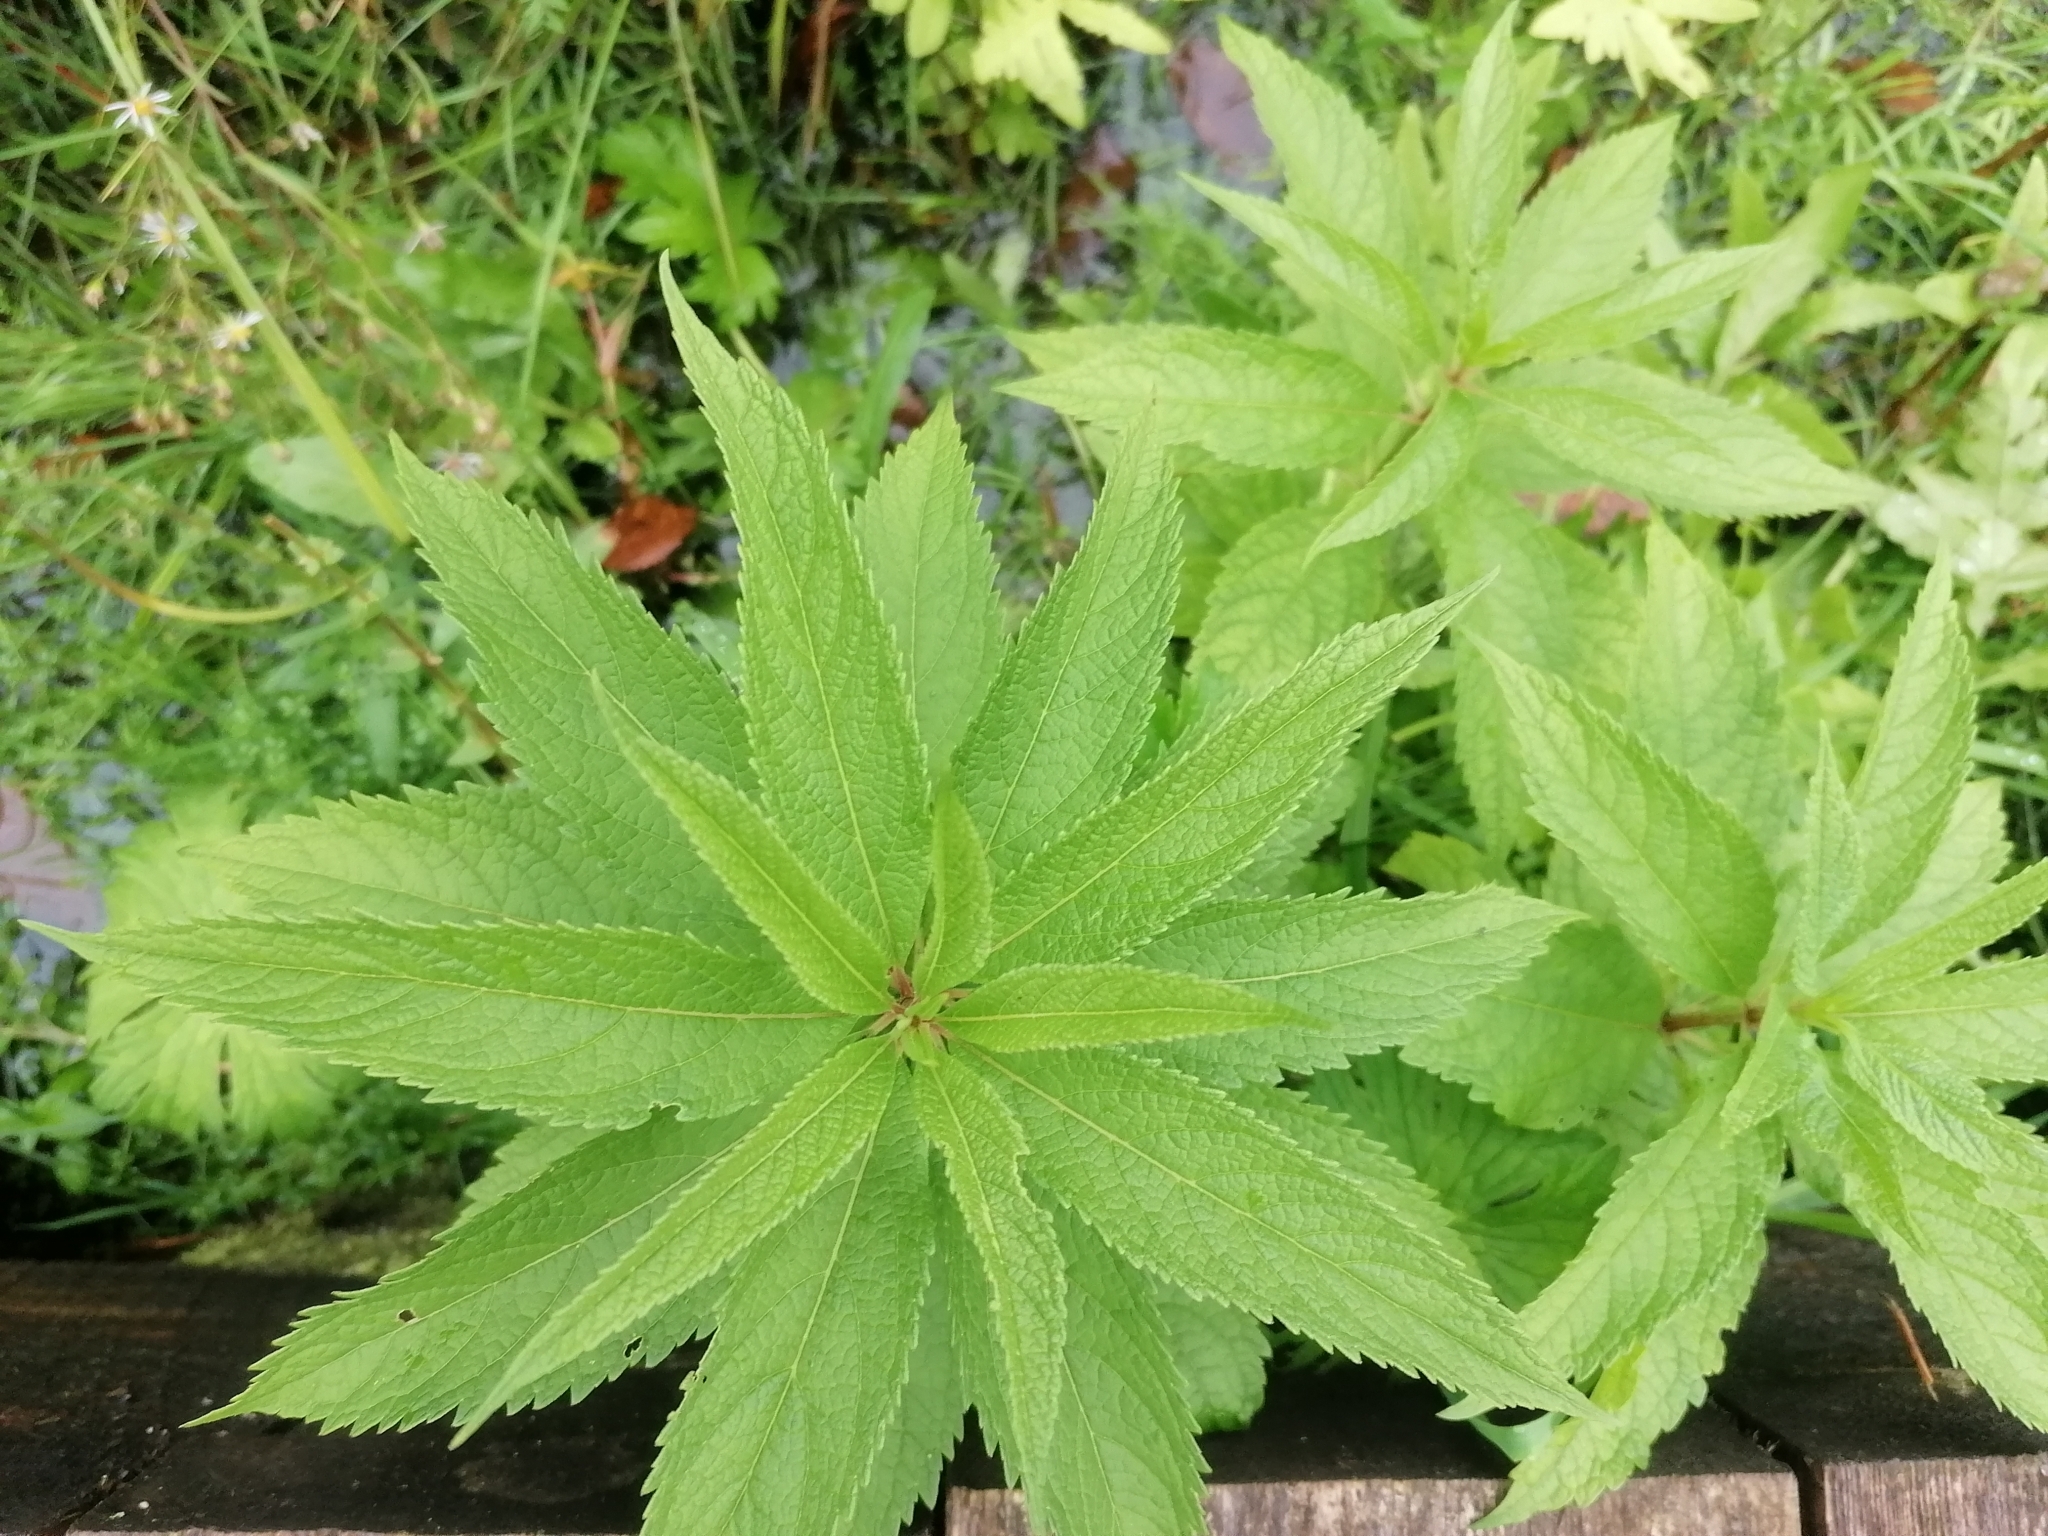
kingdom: Plantae
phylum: Tracheophyta
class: Magnoliopsida
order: Asterales
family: Asteraceae
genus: Eutrochium
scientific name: Eutrochium maculatum
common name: Spotted joe pye weed
